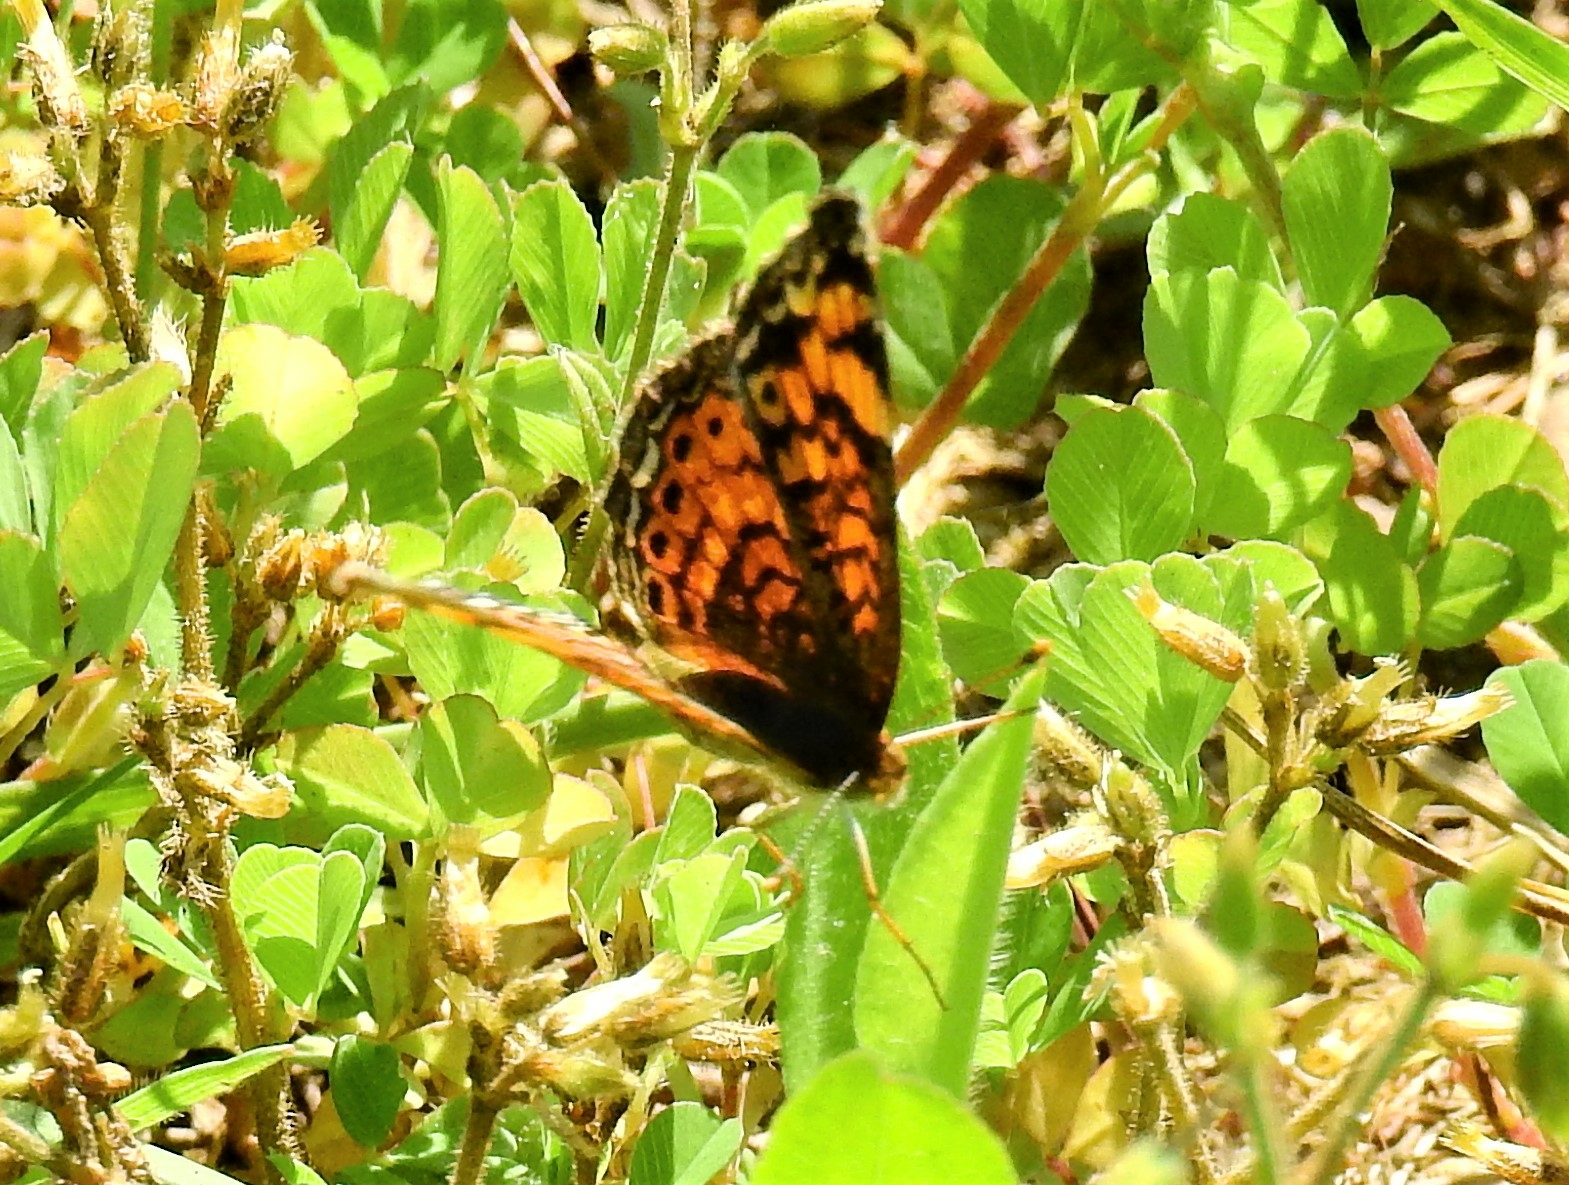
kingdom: Animalia
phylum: Arthropoda
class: Insecta
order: Lepidoptera
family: Nymphalidae
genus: Phyciodes
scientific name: Phyciodes tharos
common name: Pearl crescent
